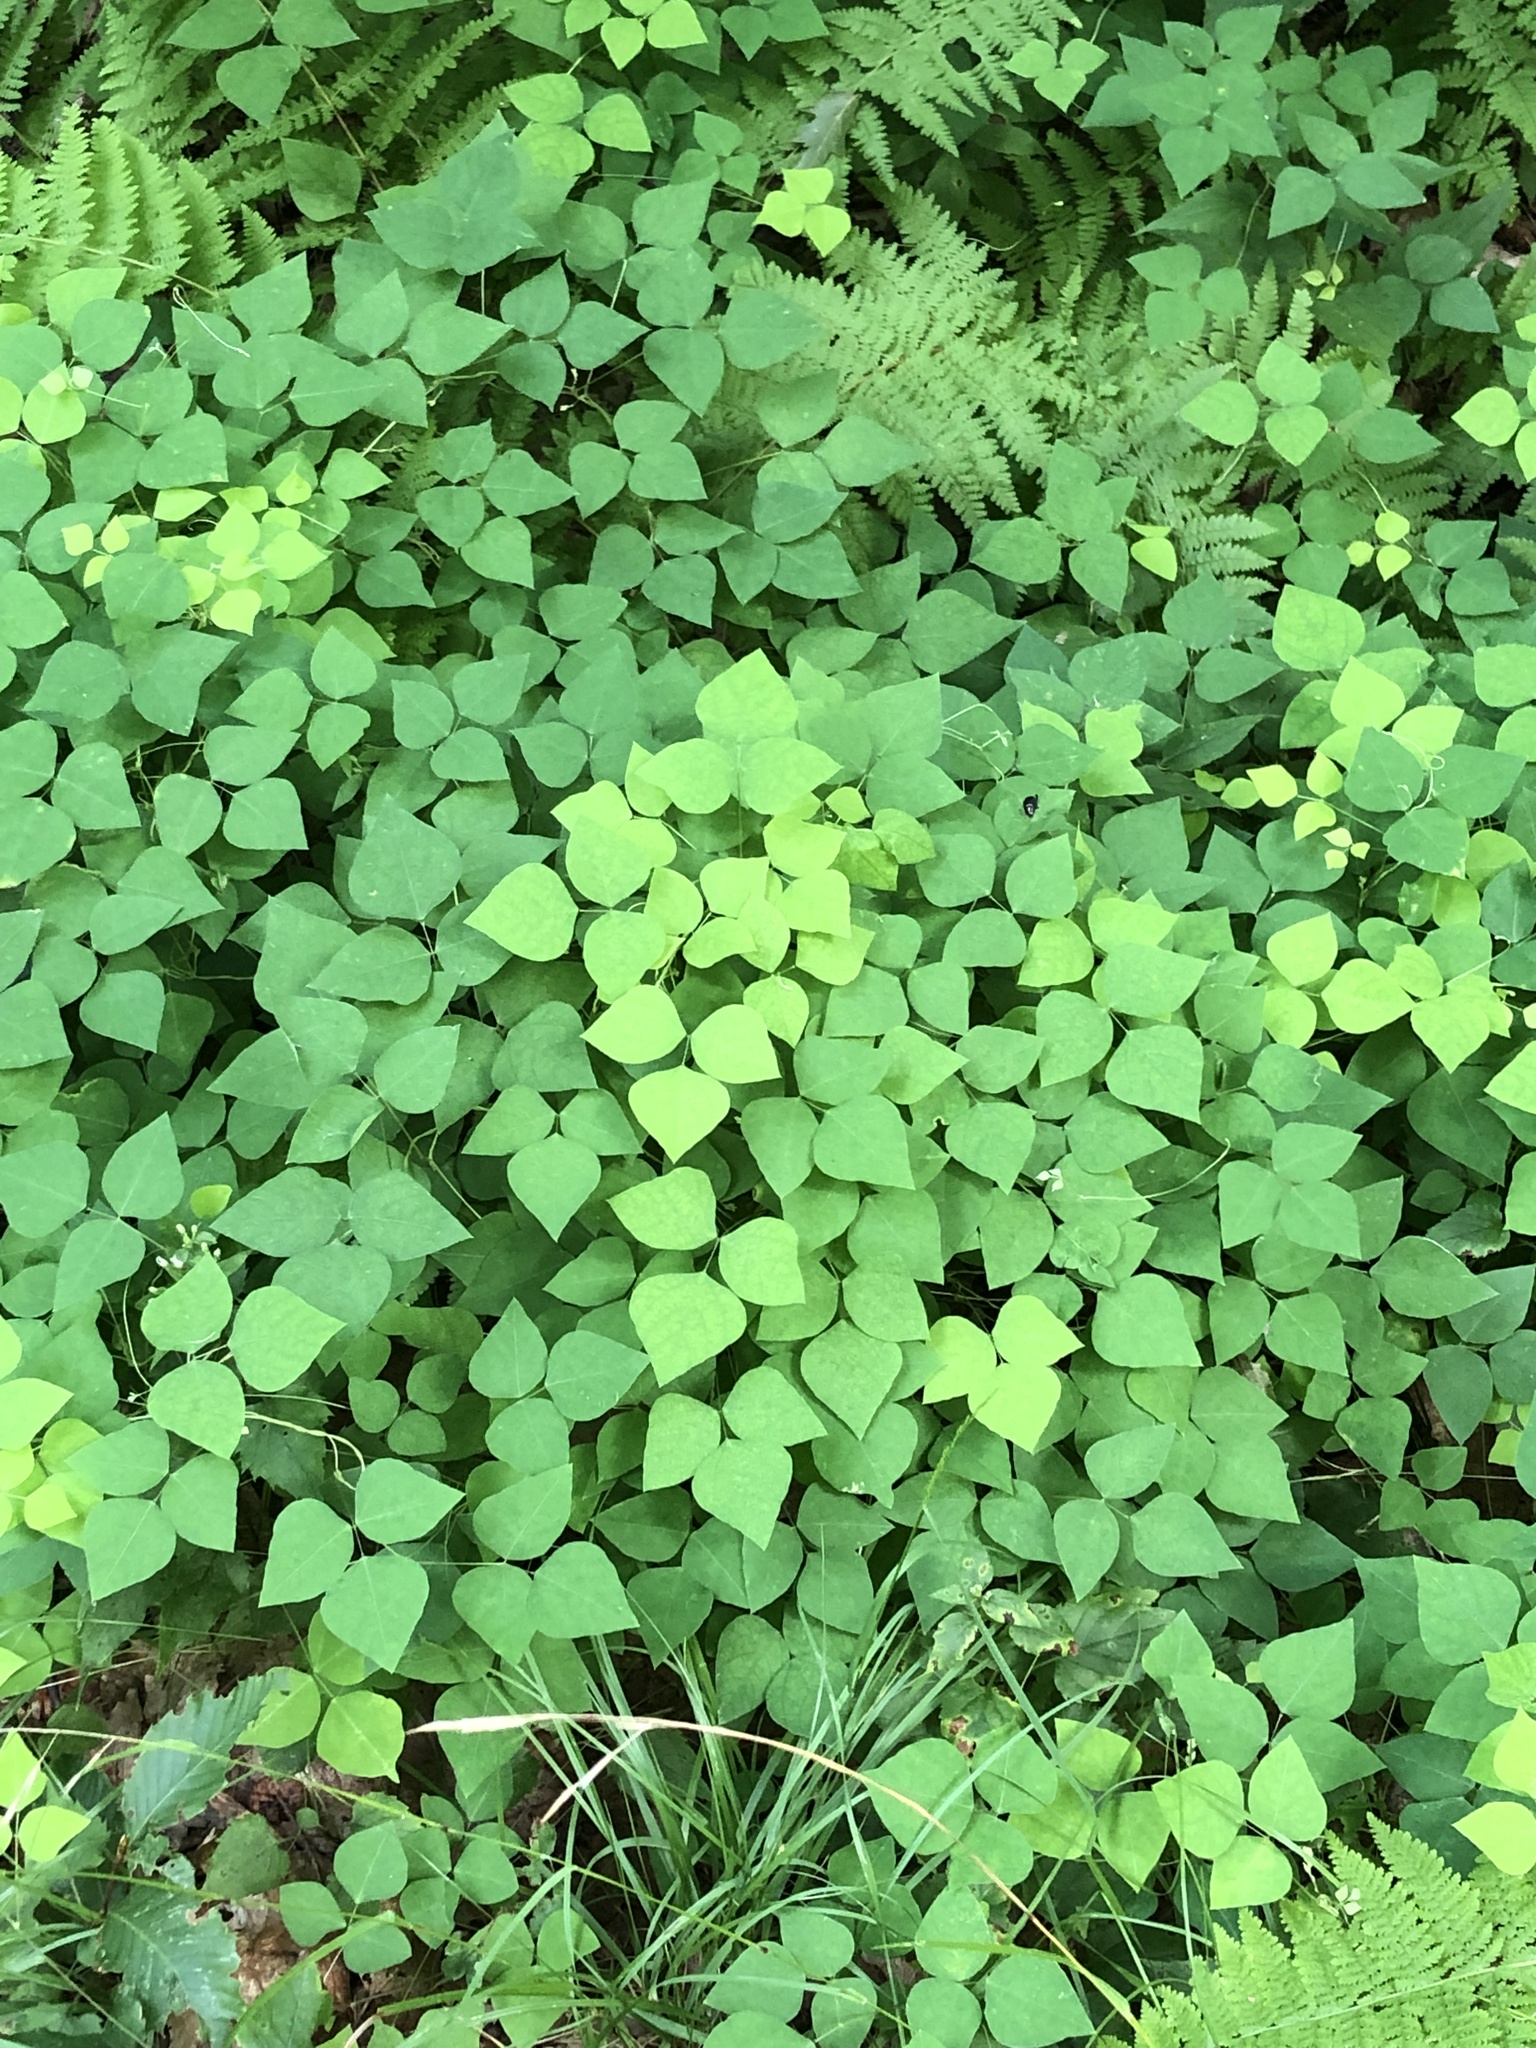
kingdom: Plantae
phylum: Tracheophyta
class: Magnoliopsida
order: Fabales
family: Fabaceae
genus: Amphicarpaea
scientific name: Amphicarpaea bracteata
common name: American hog peanut
